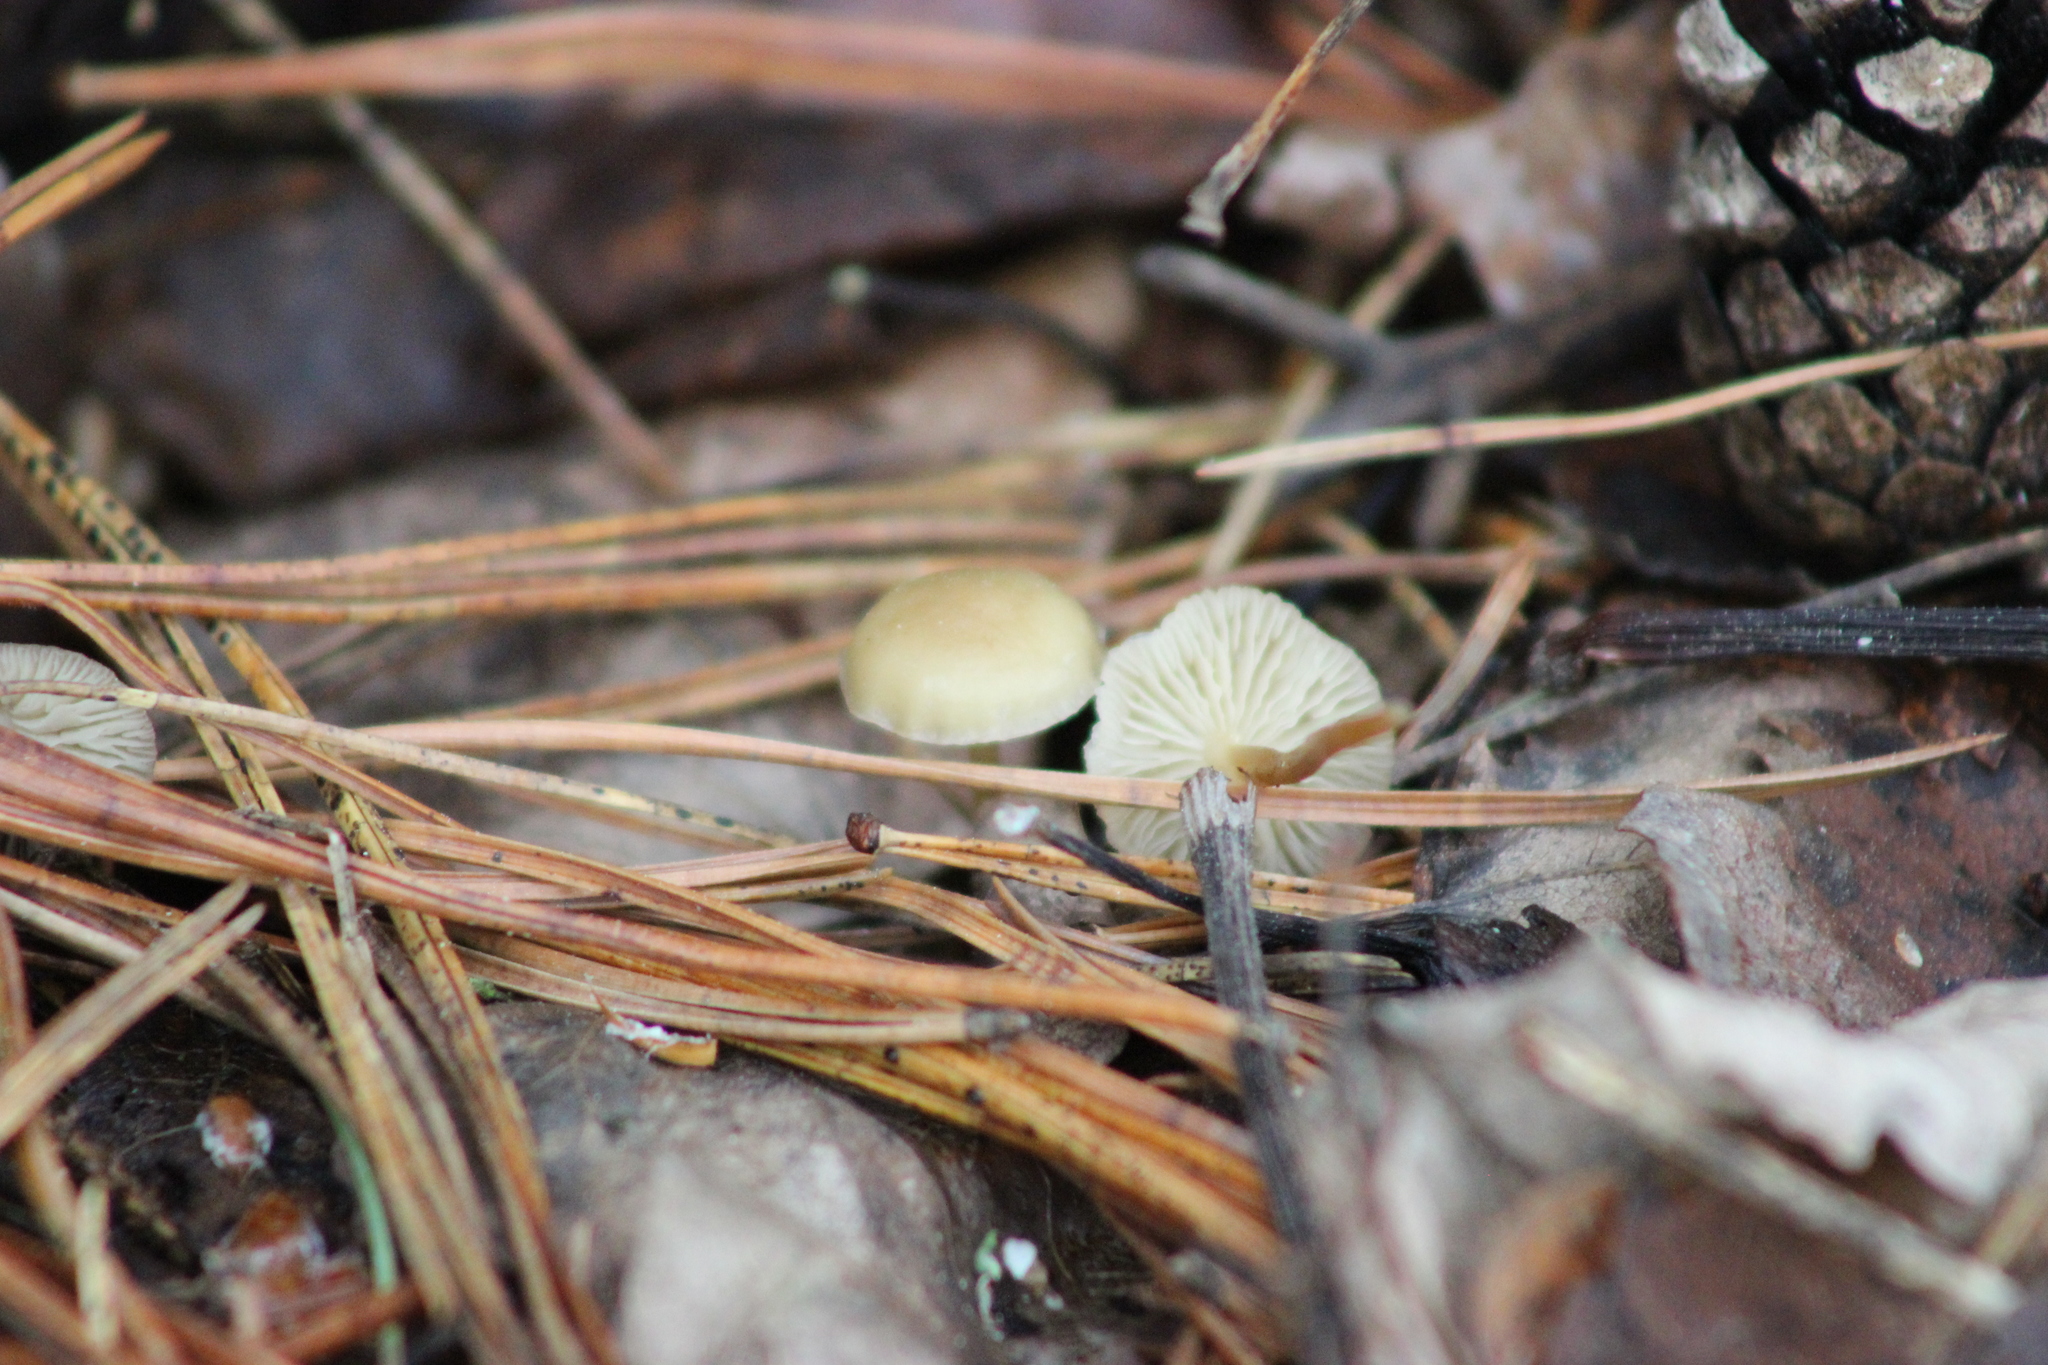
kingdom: Fungi
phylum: Basidiomycota
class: Agaricomycetes
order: Agaricales
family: Physalacriaceae
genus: Strobilurus
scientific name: Strobilurus stephanocystis
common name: Russian conecap
